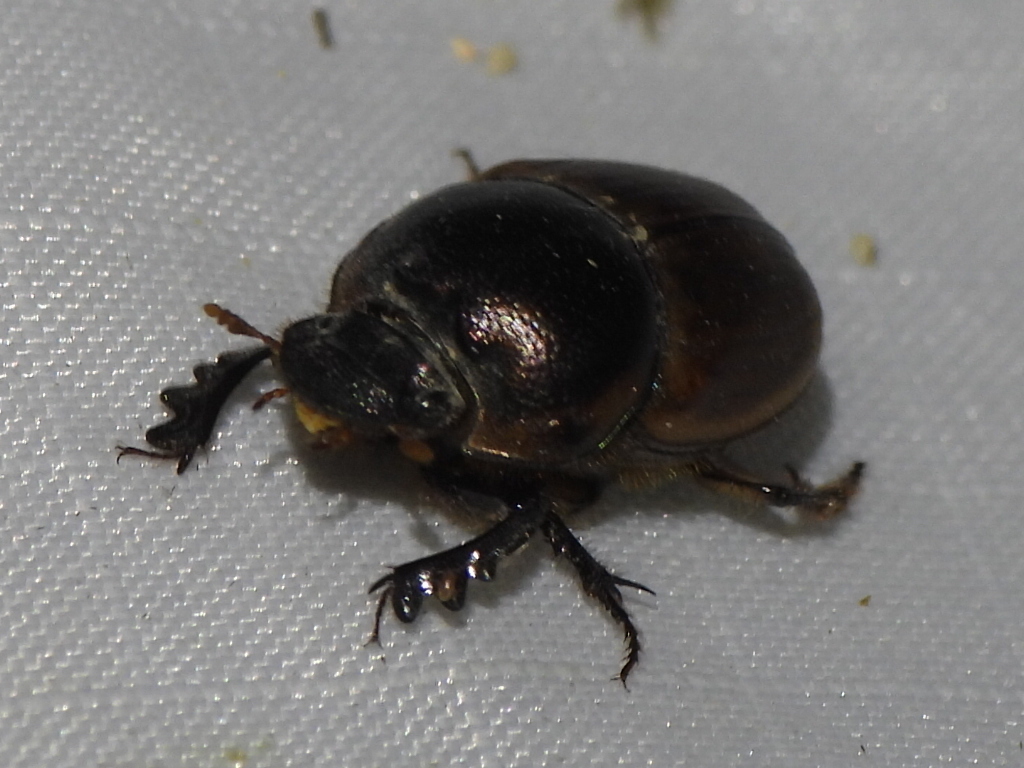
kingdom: Animalia
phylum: Arthropoda
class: Insecta
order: Coleoptera
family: Scarabaeidae
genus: Digitonthophagus
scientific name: Digitonthophagus gazella
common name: Brown dung beetle
